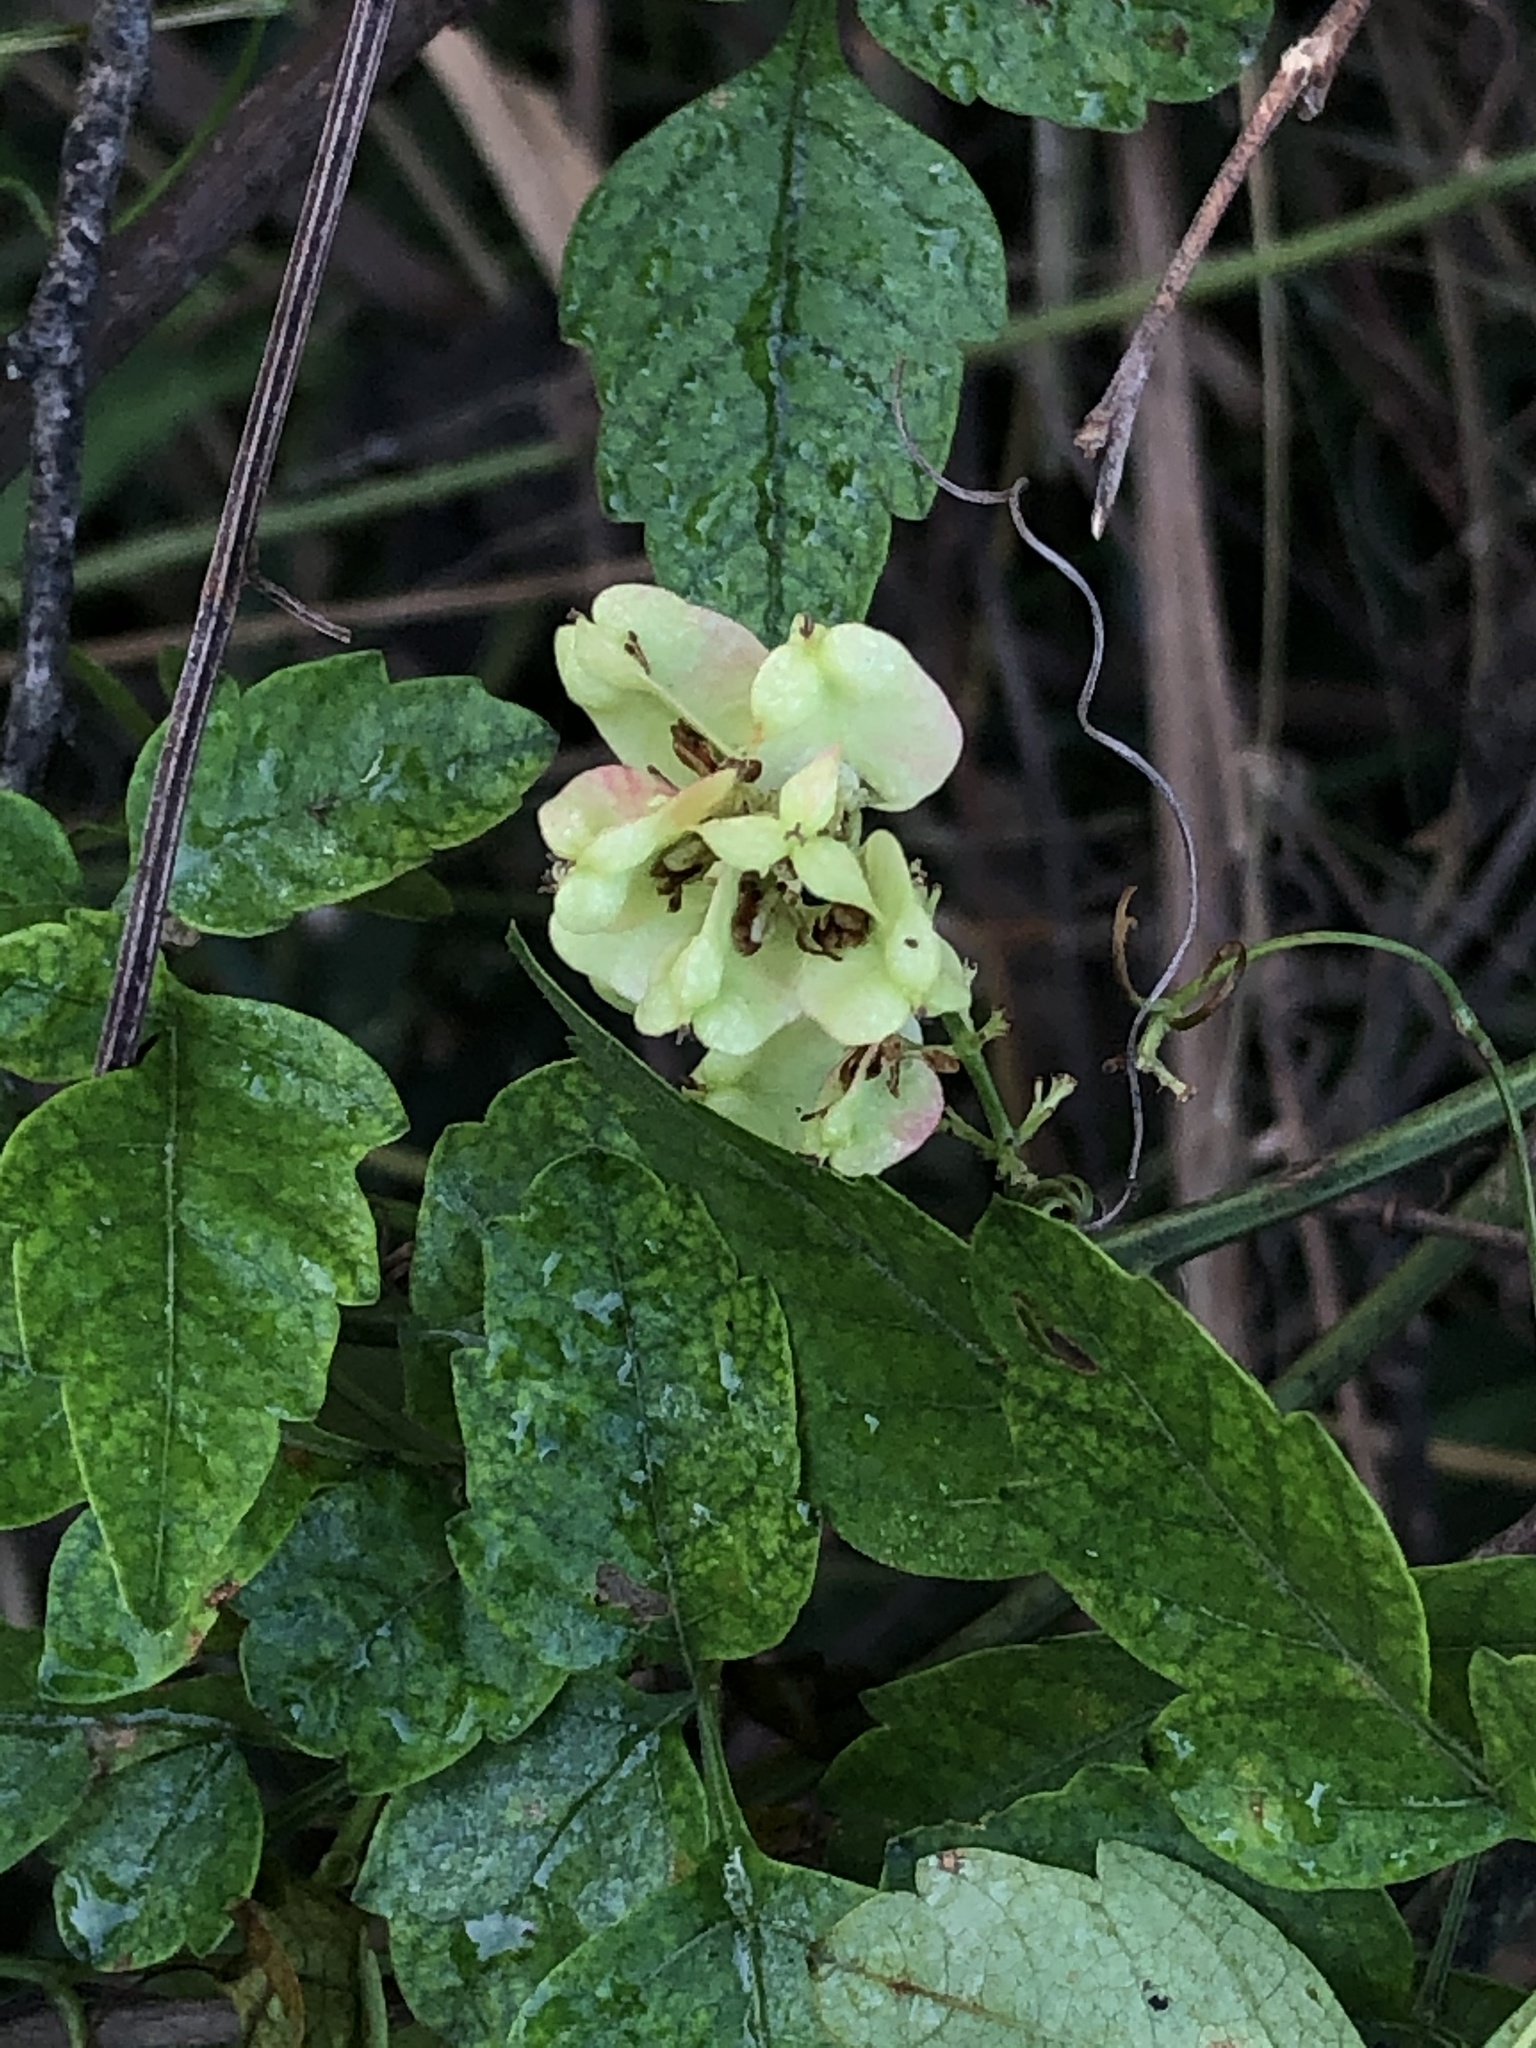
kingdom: Plantae
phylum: Tracheophyta
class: Magnoliopsida
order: Sapindales
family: Sapindaceae
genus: Serjania
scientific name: Serjania brachycarpa
